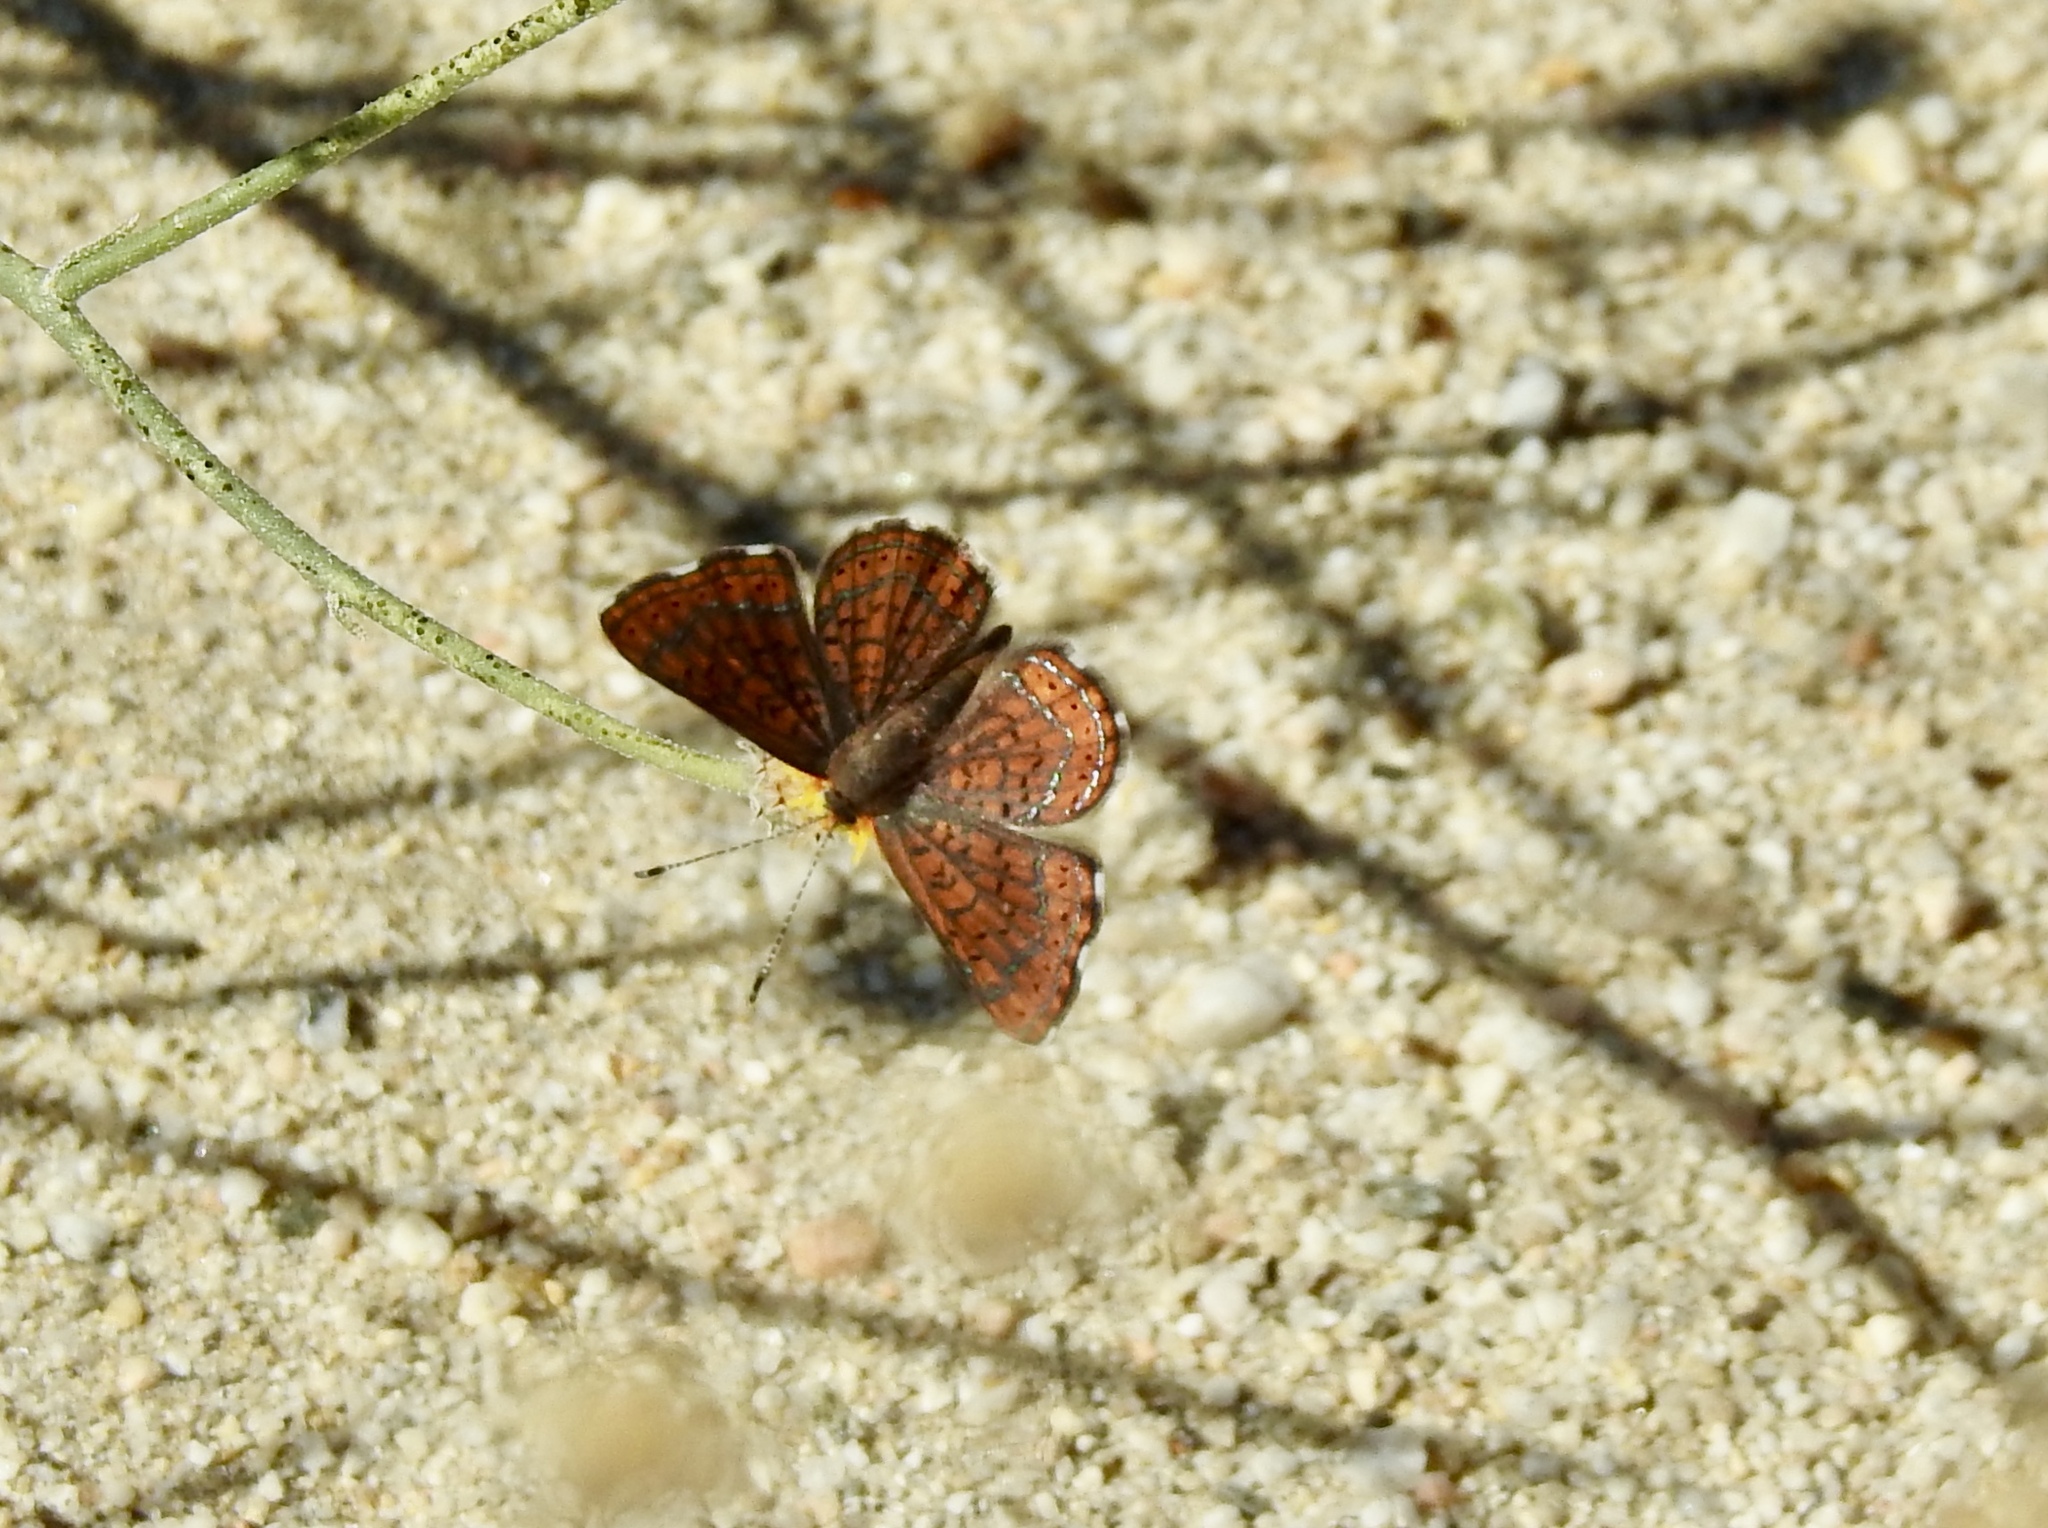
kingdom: Animalia
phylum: Arthropoda
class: Insecta
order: Lepidoptera
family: Lycaenidae
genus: Emesis
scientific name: Emesis wrighti
